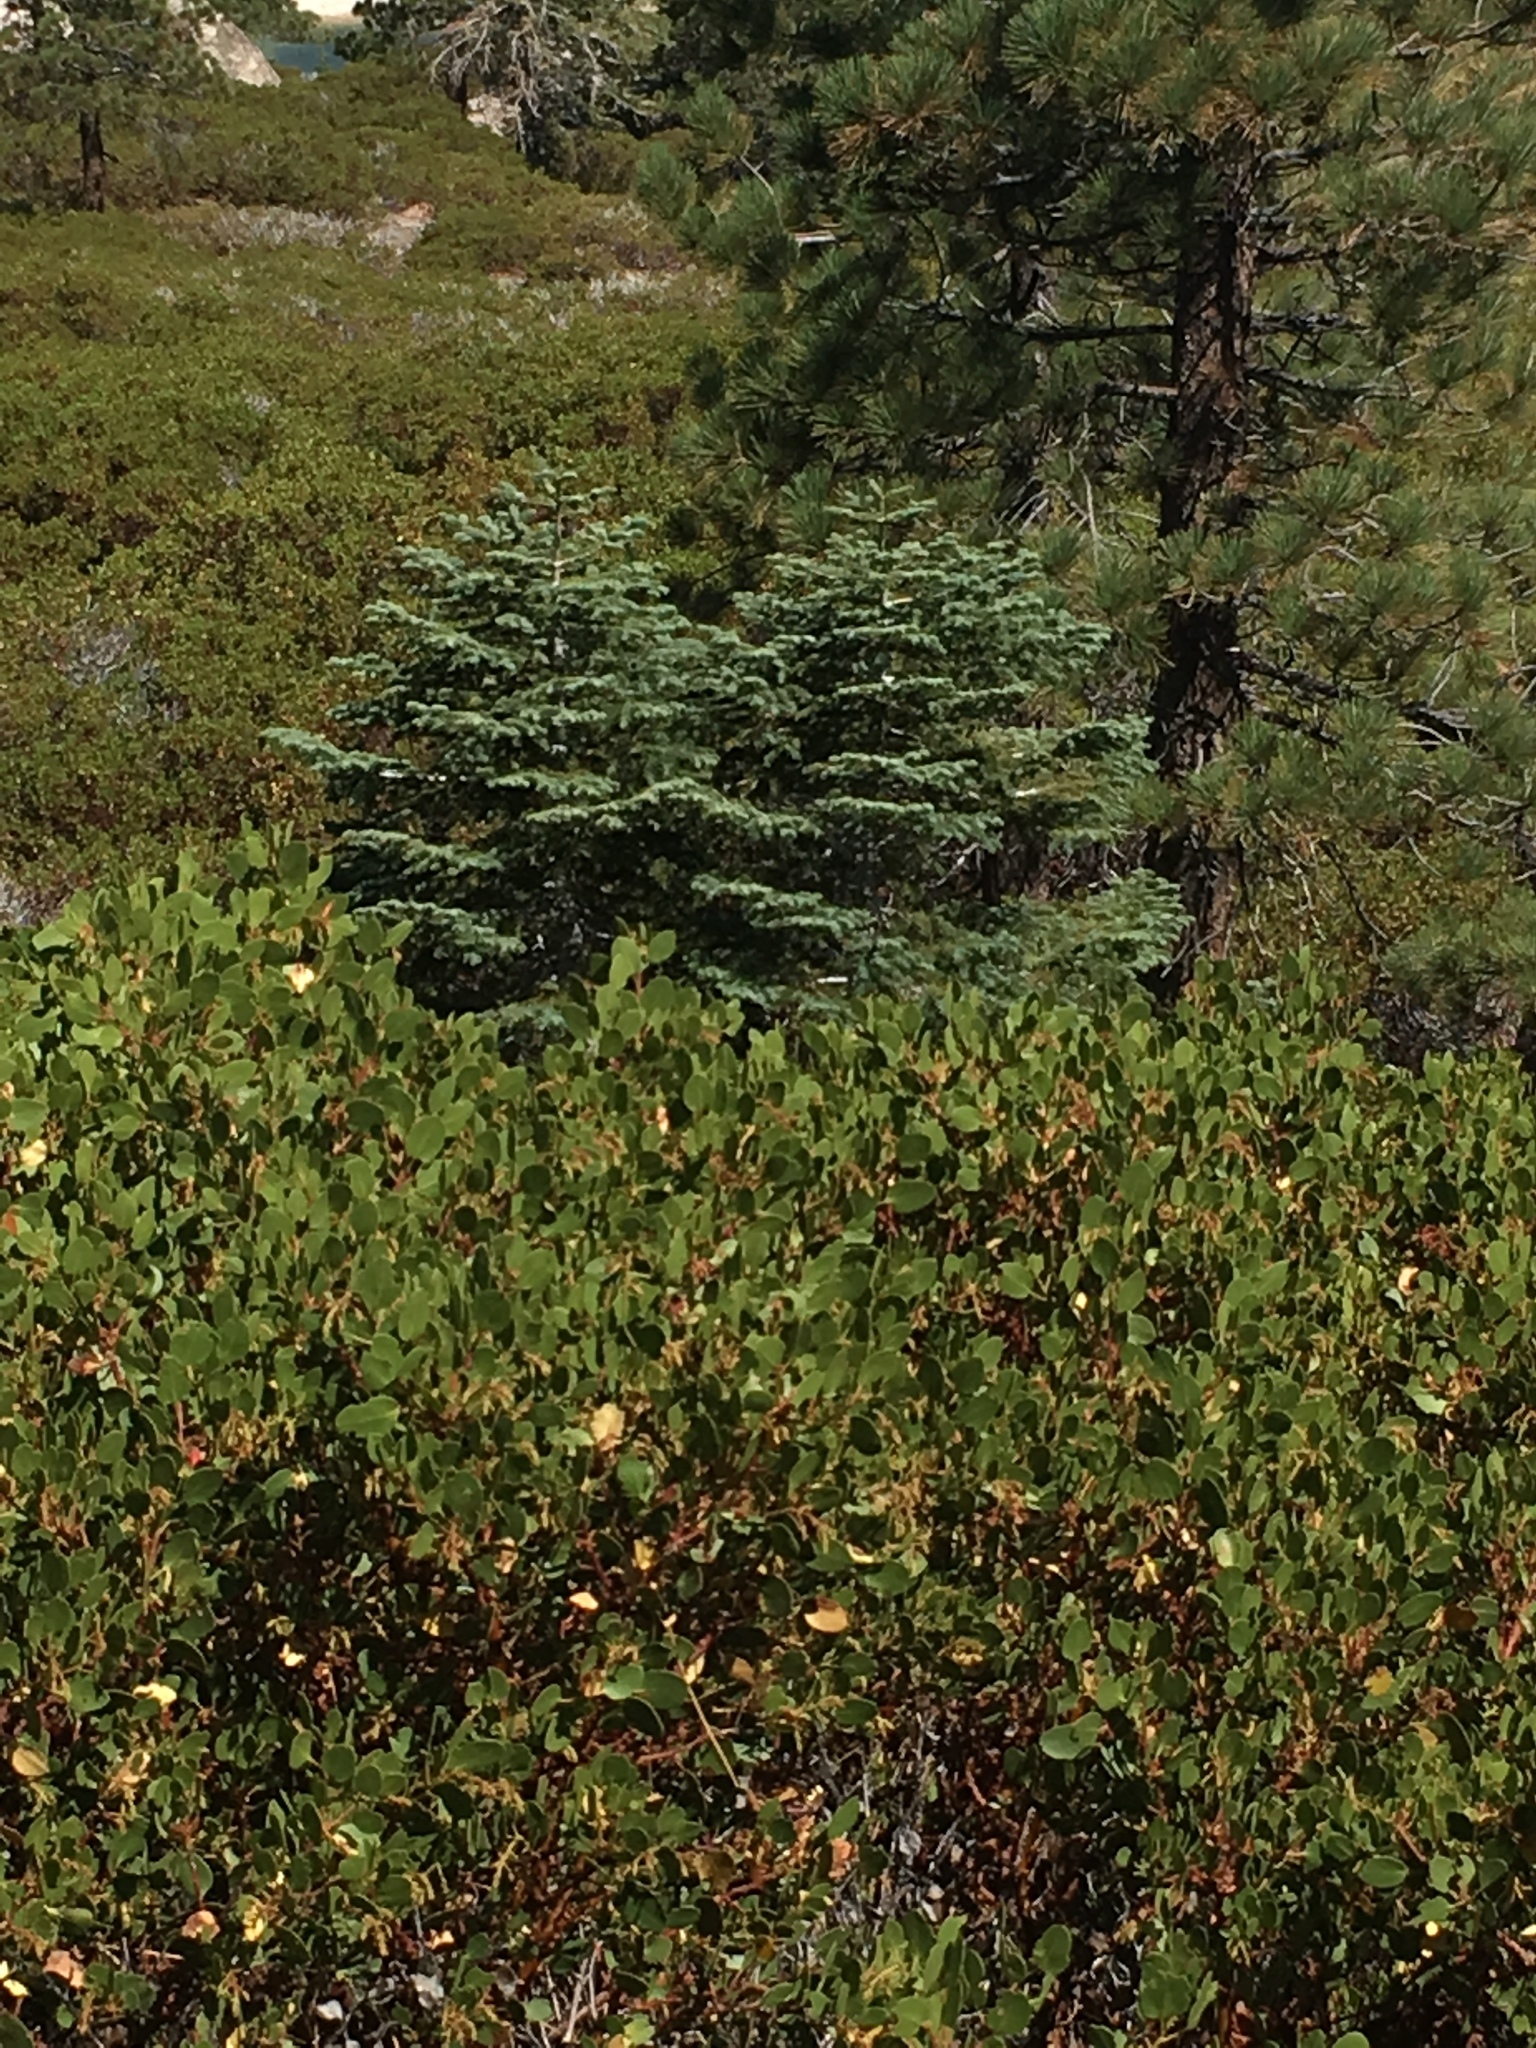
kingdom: Plantae
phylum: Tracheophyta
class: Pinopsida
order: Pinales
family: Pinaceae
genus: Abies
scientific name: Abies concolor
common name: Colorado fir
